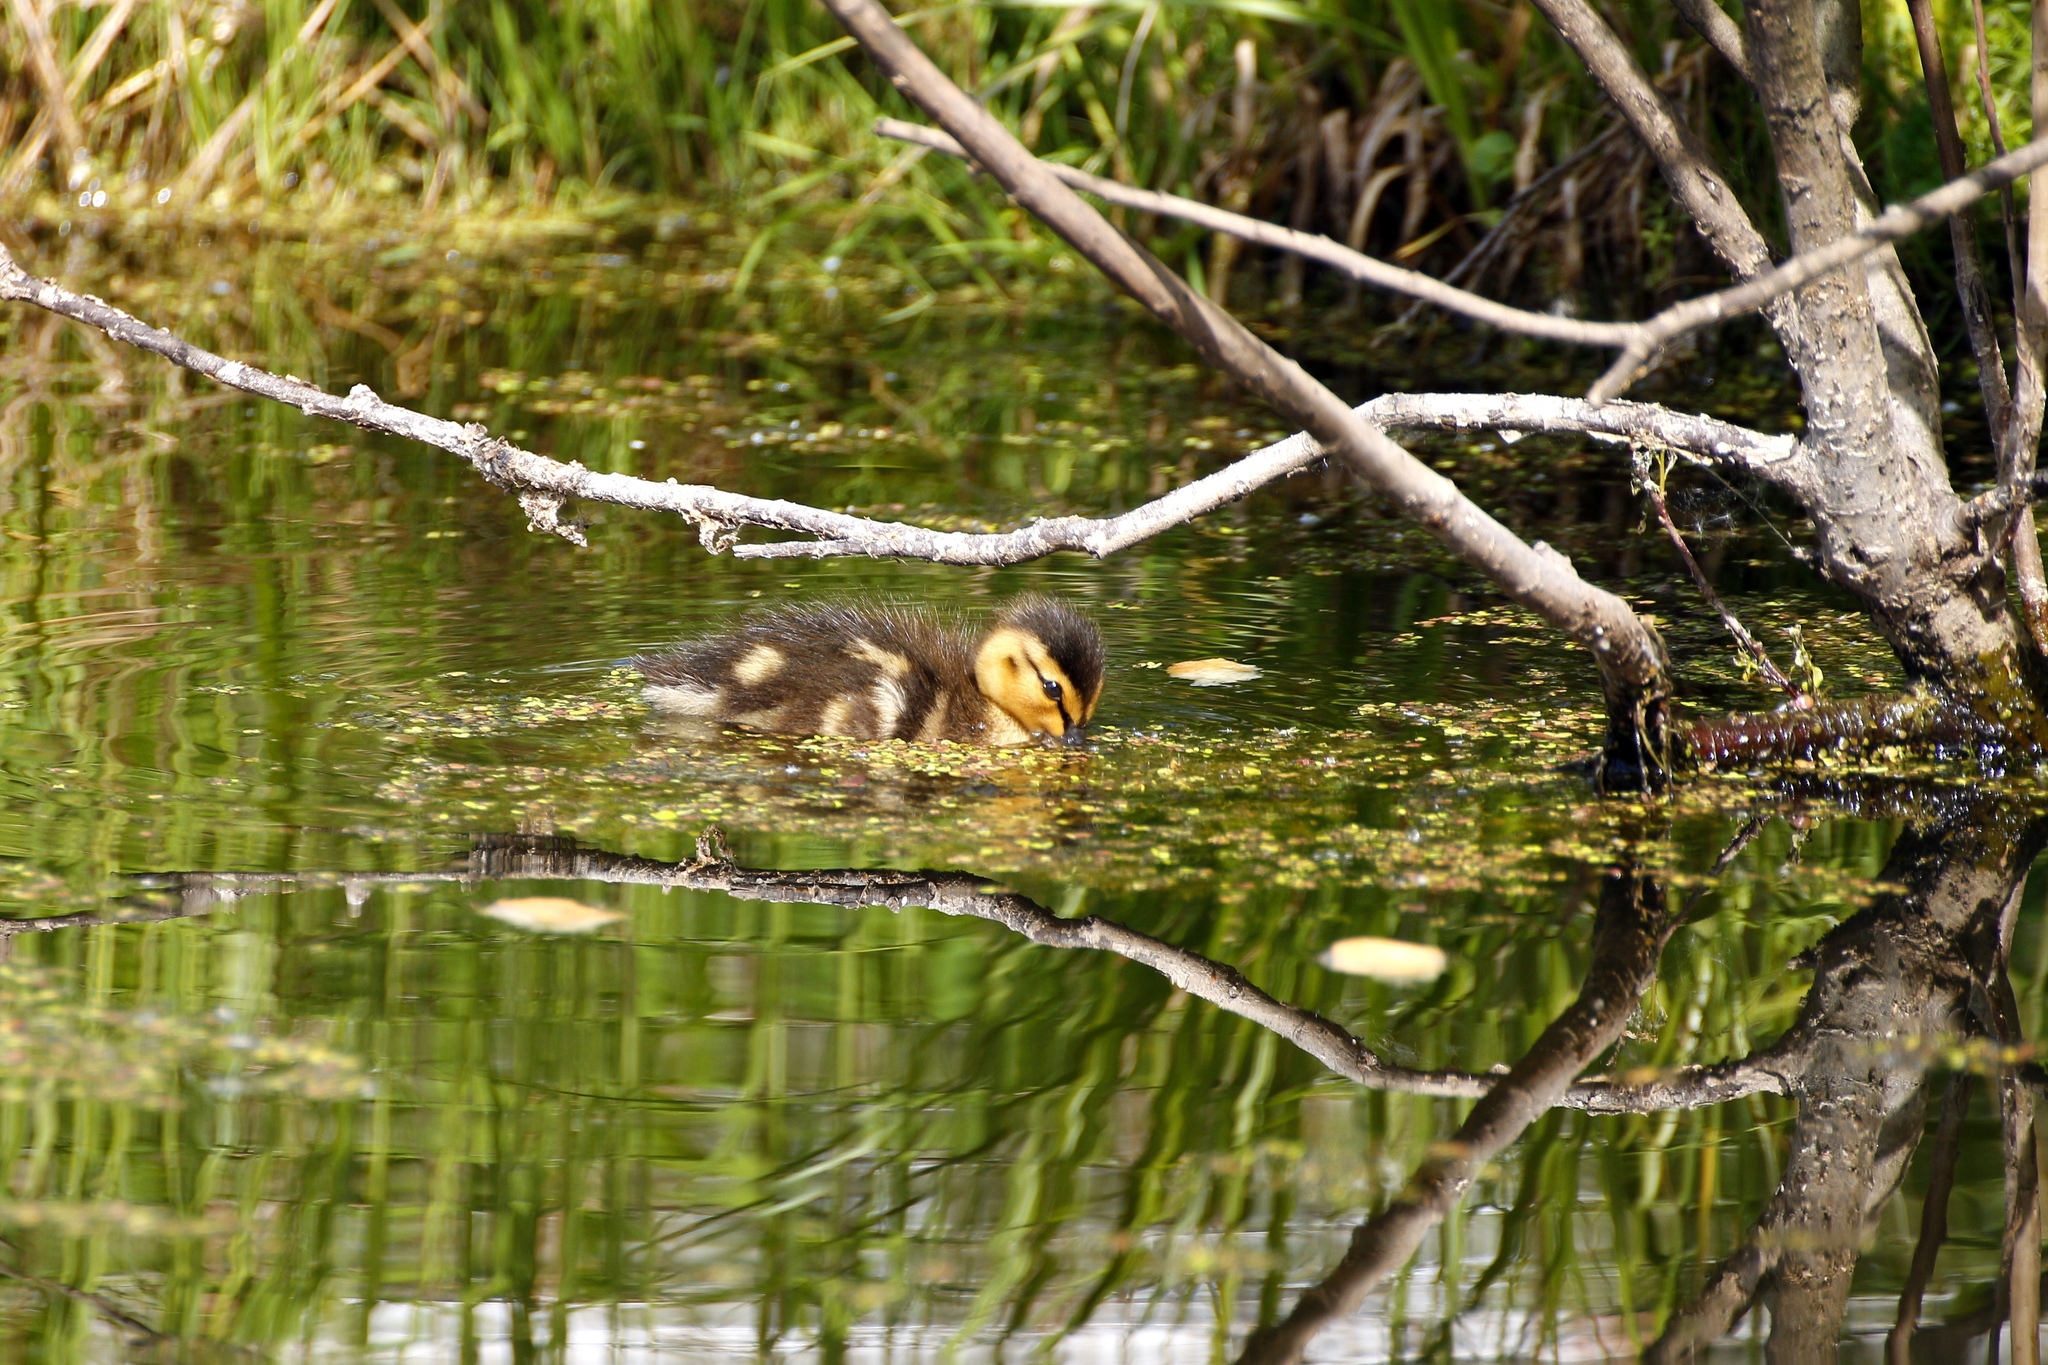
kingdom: Animalia
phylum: Chordata
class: Aves
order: Anseriformes
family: Anatidae
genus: Anas
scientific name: Anas platyrhynchos
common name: Mallard
